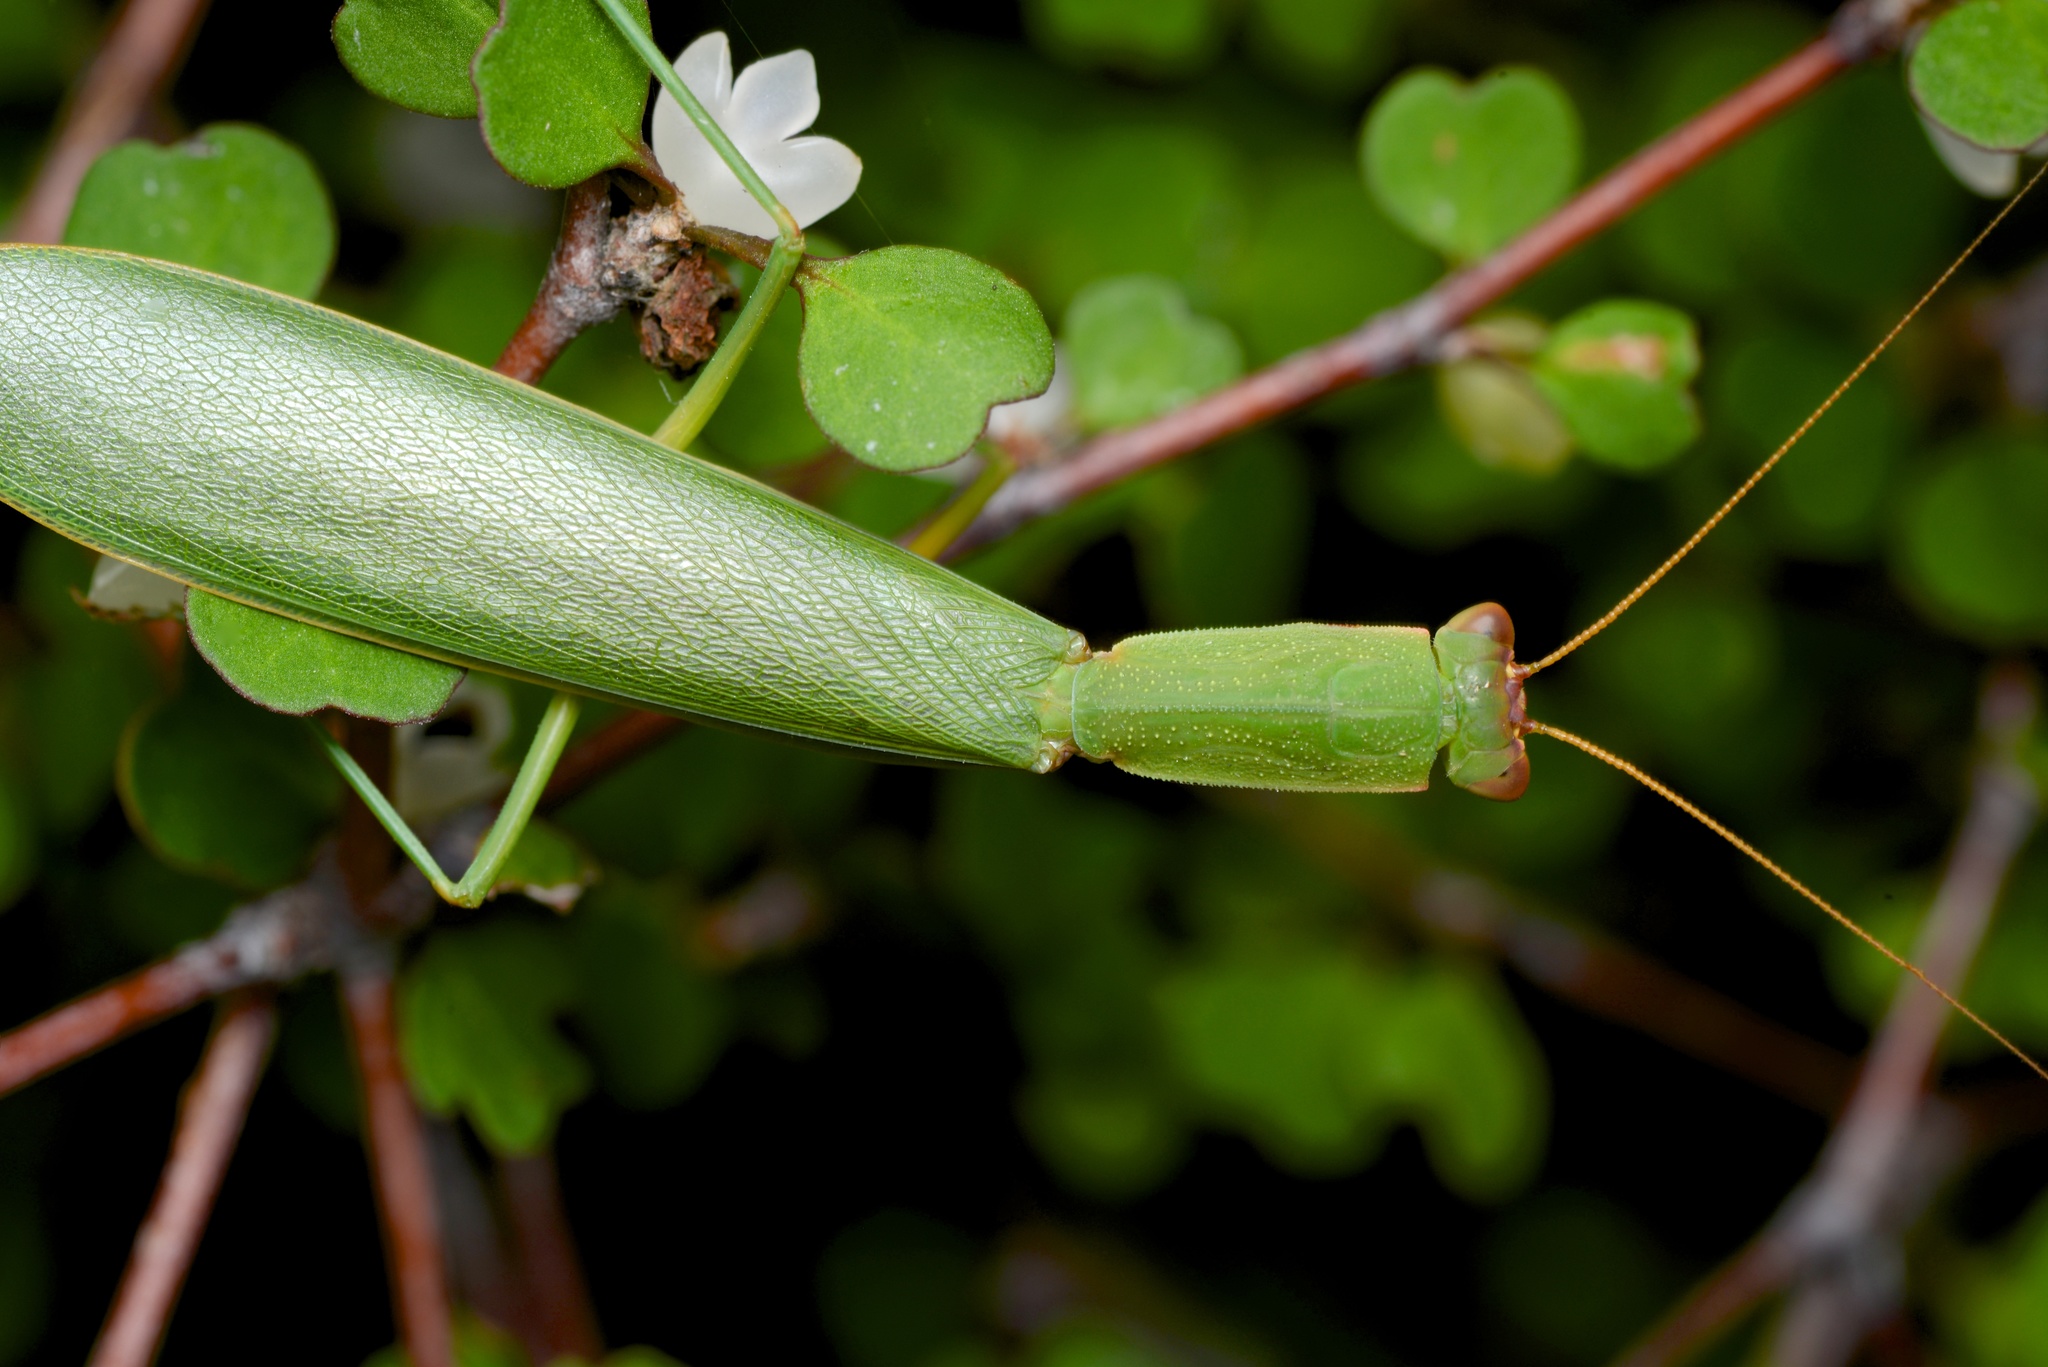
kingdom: Animalia
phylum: Arthropoda
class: Insecta
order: Mantodea
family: Mantidae
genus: Orthodera
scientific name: Orthodera novaezealandiae
